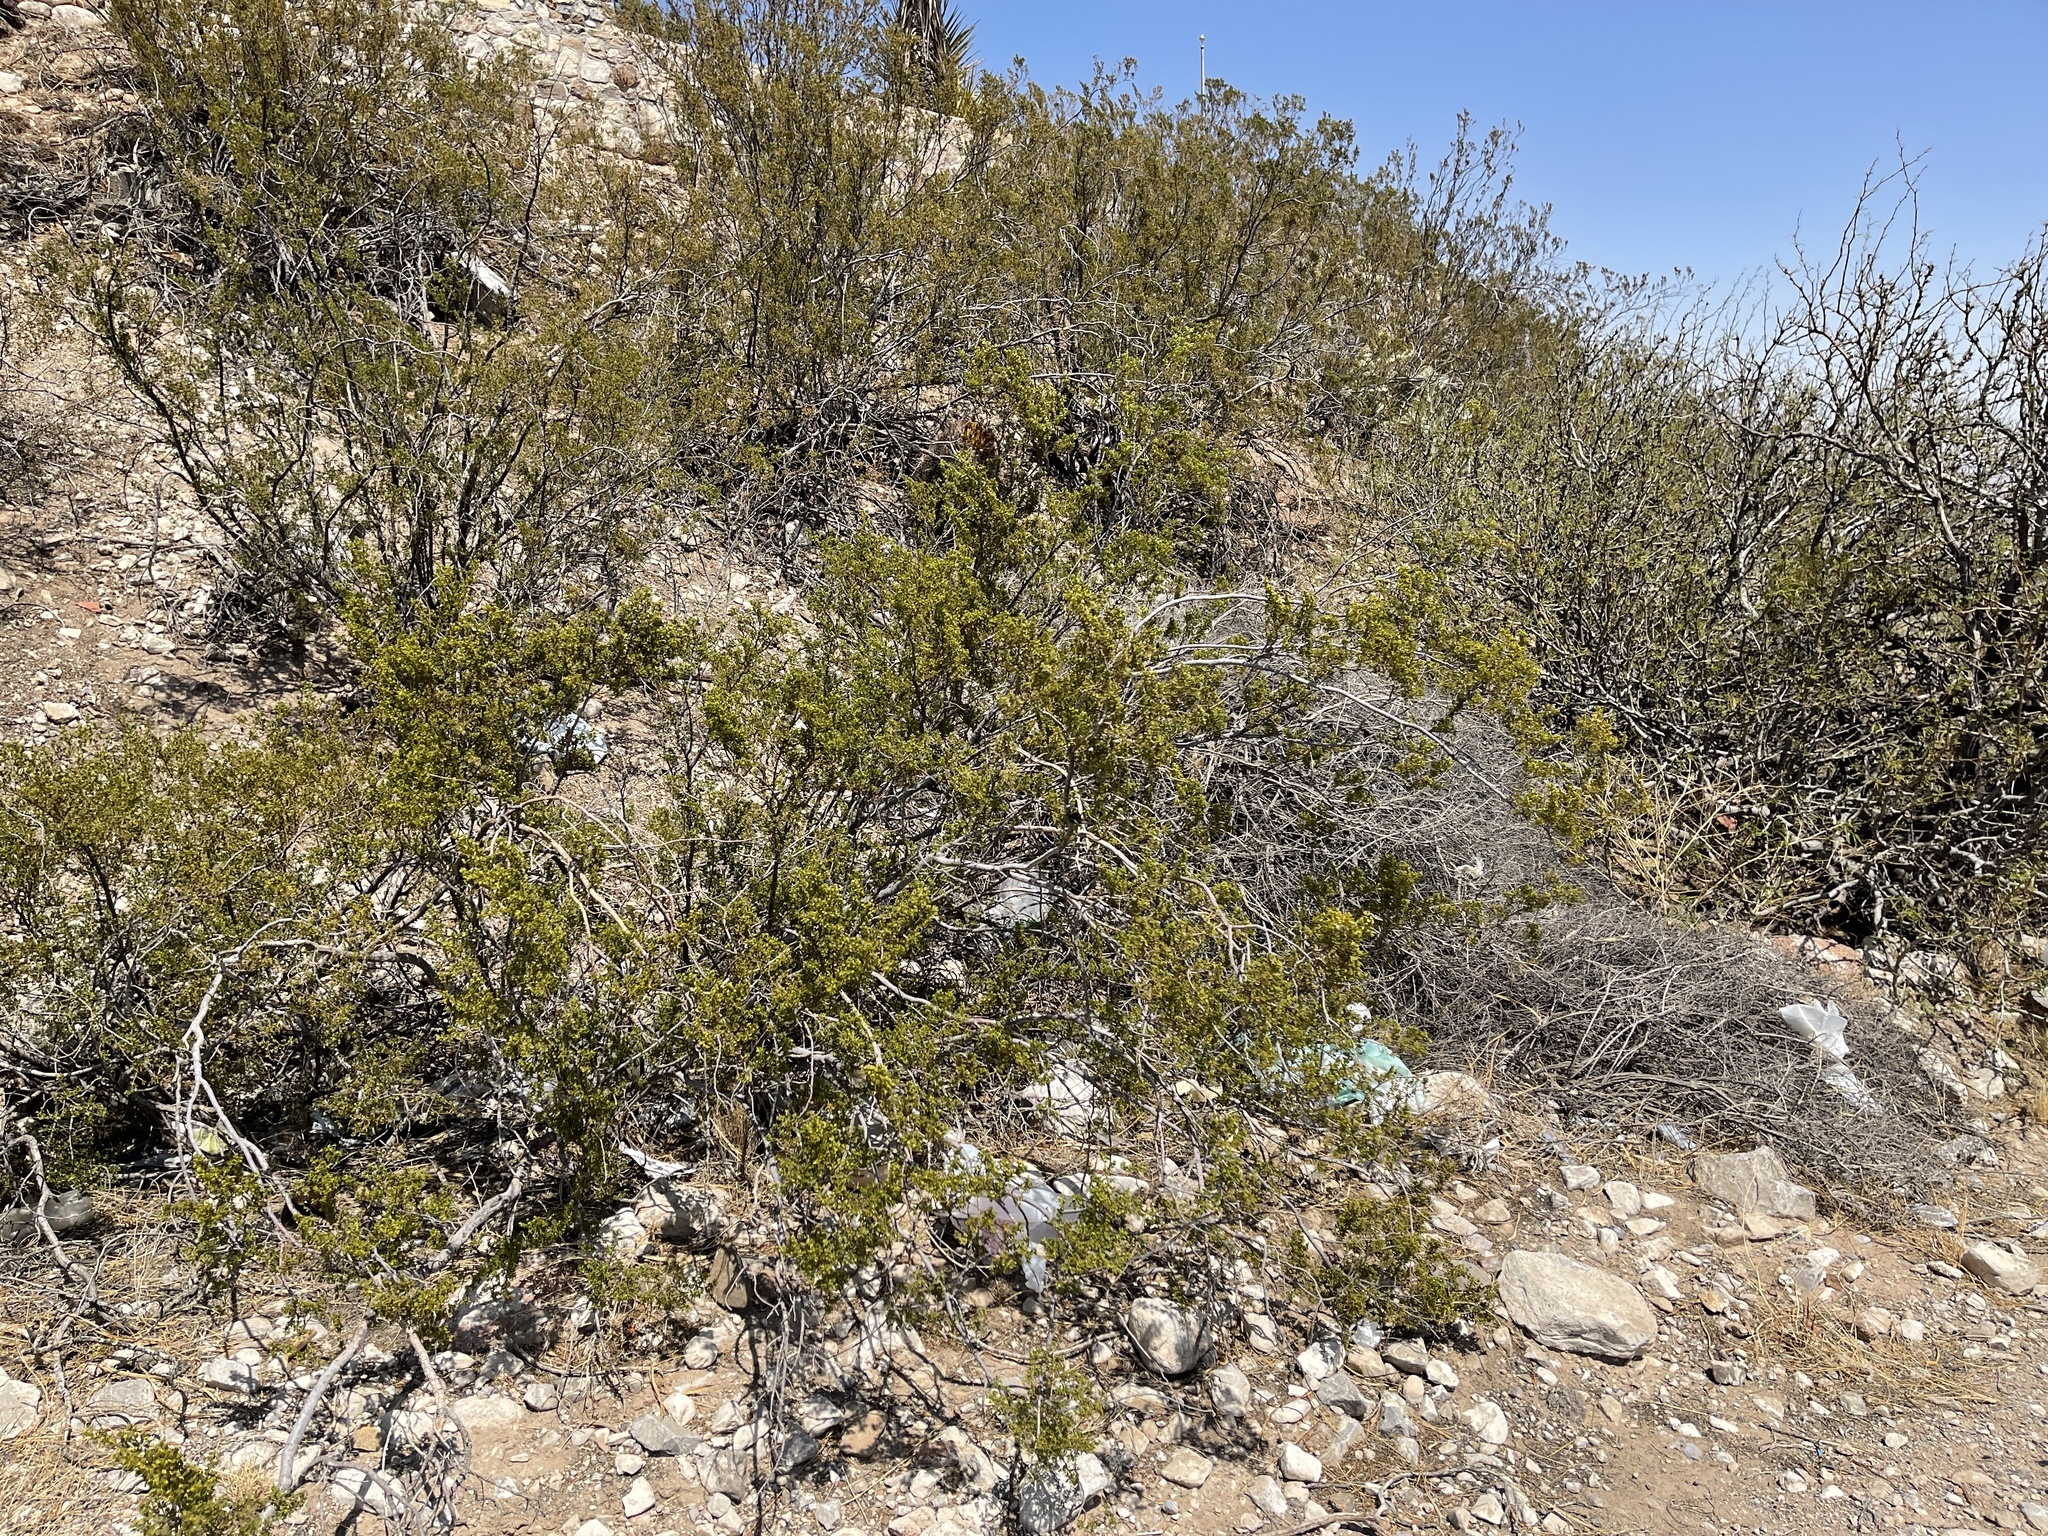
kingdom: Plantae
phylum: Tracheophyta
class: Magnoliopsida
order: Zygophyllales
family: Zygophyllaceae
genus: Larrea
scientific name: Larrea tridentata
